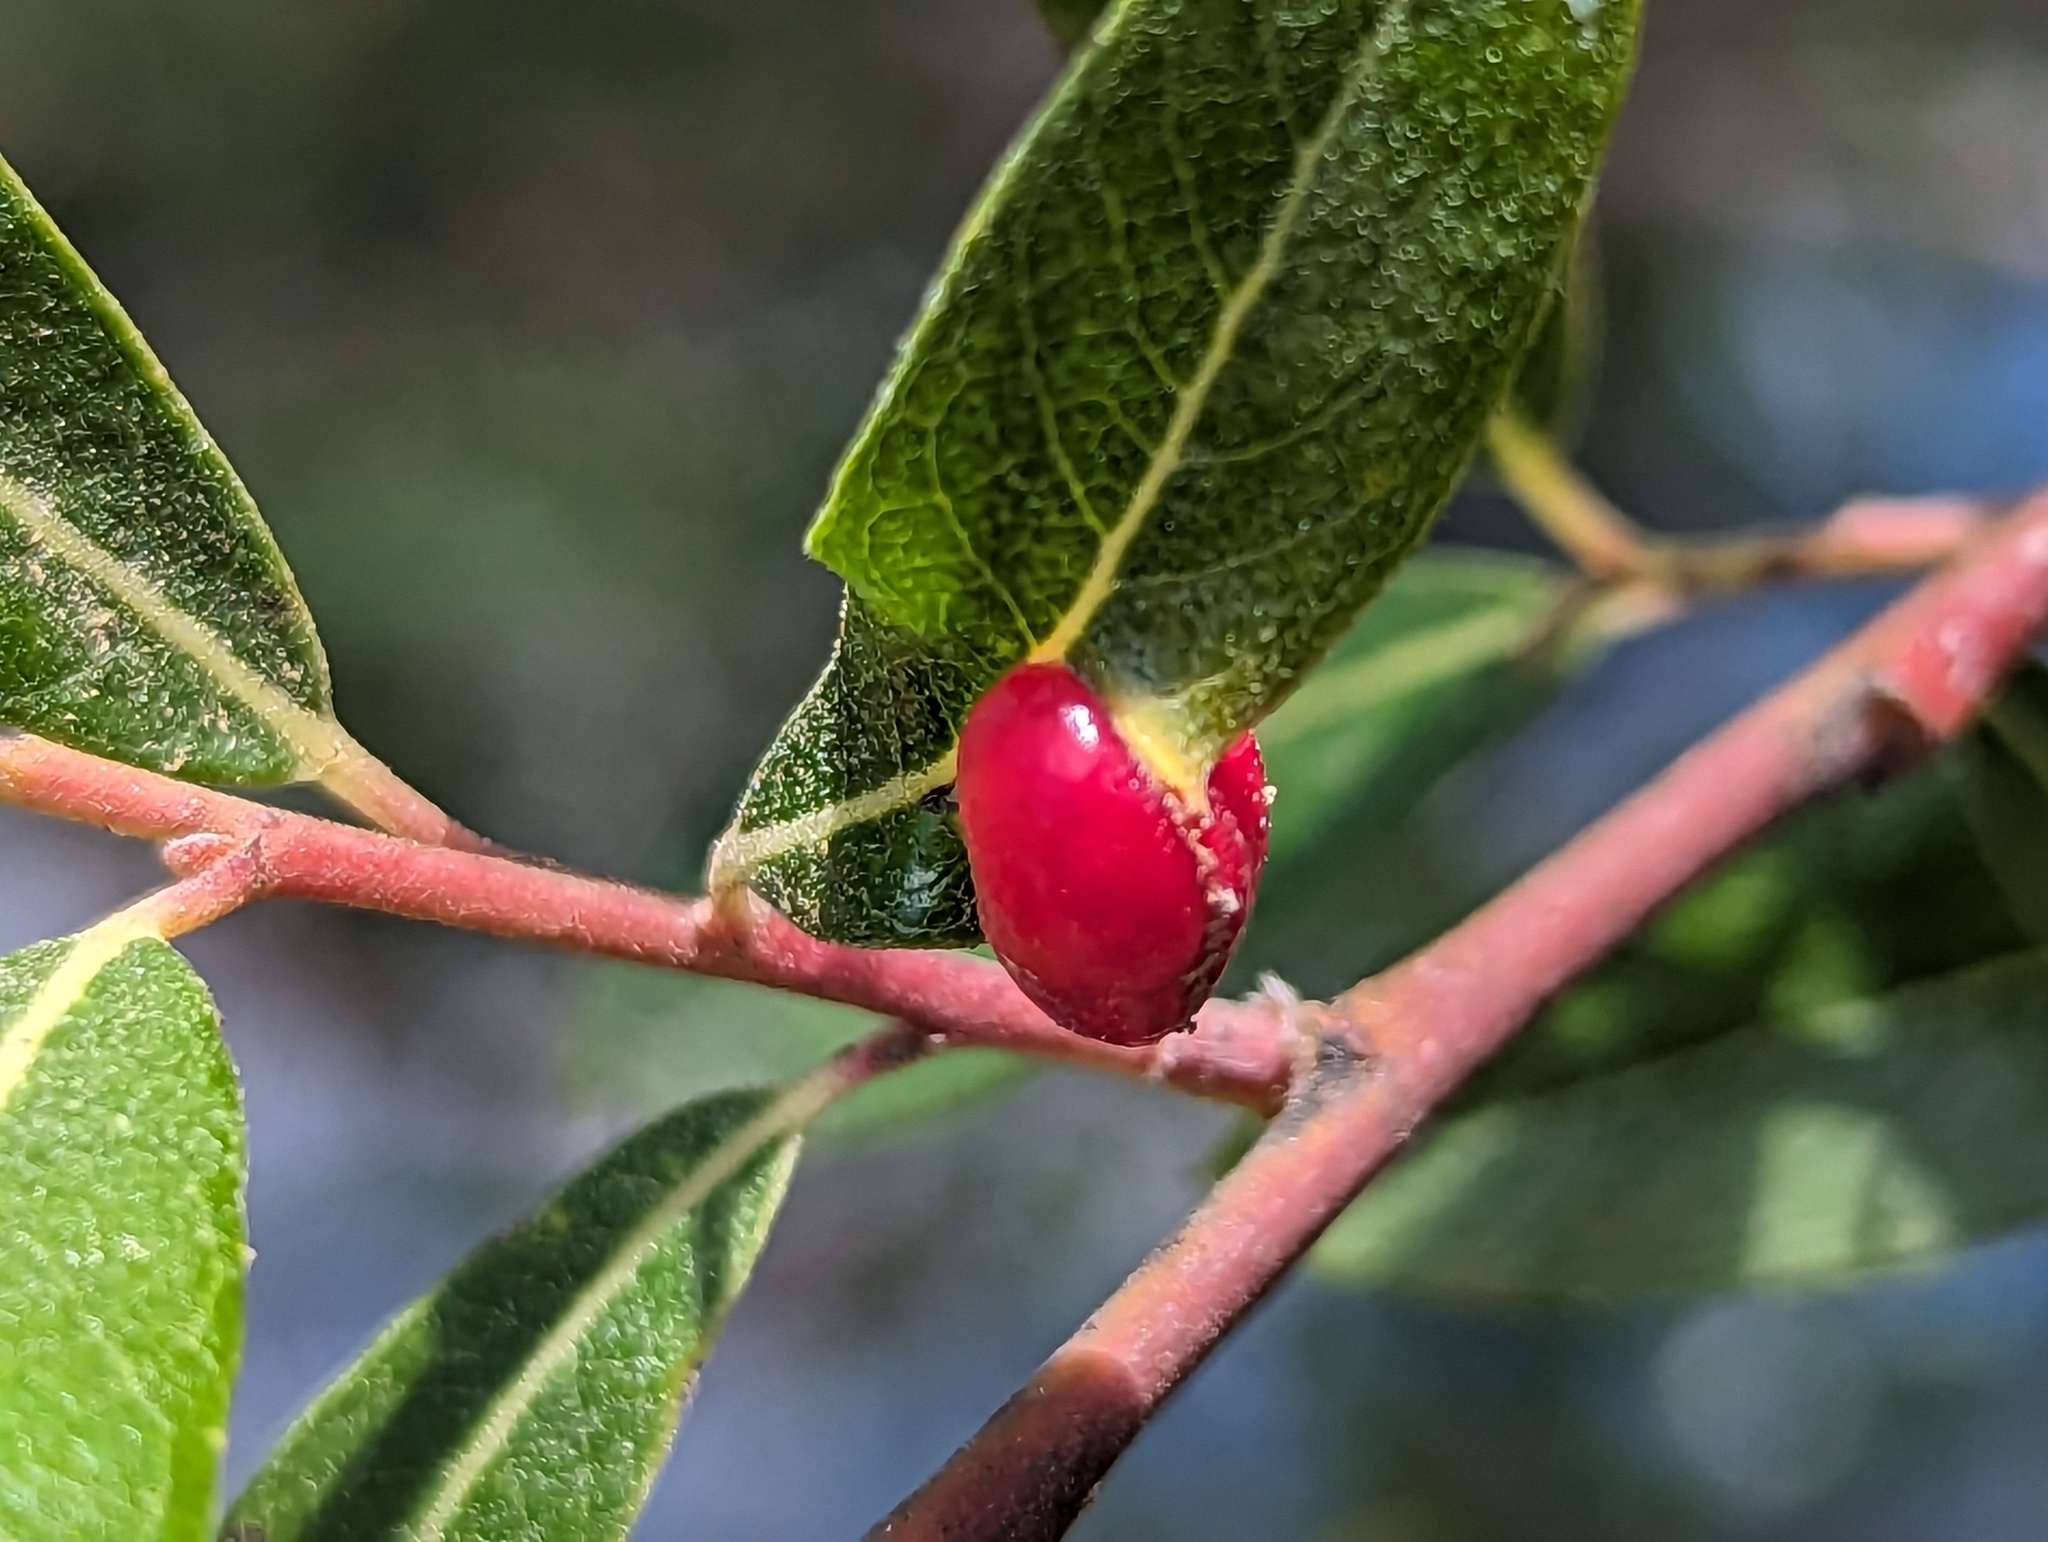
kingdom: Animalia
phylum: Arthropoda
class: Insecta
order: Hymenoptera
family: Tenthredinidae
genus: Euura
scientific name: Euura
